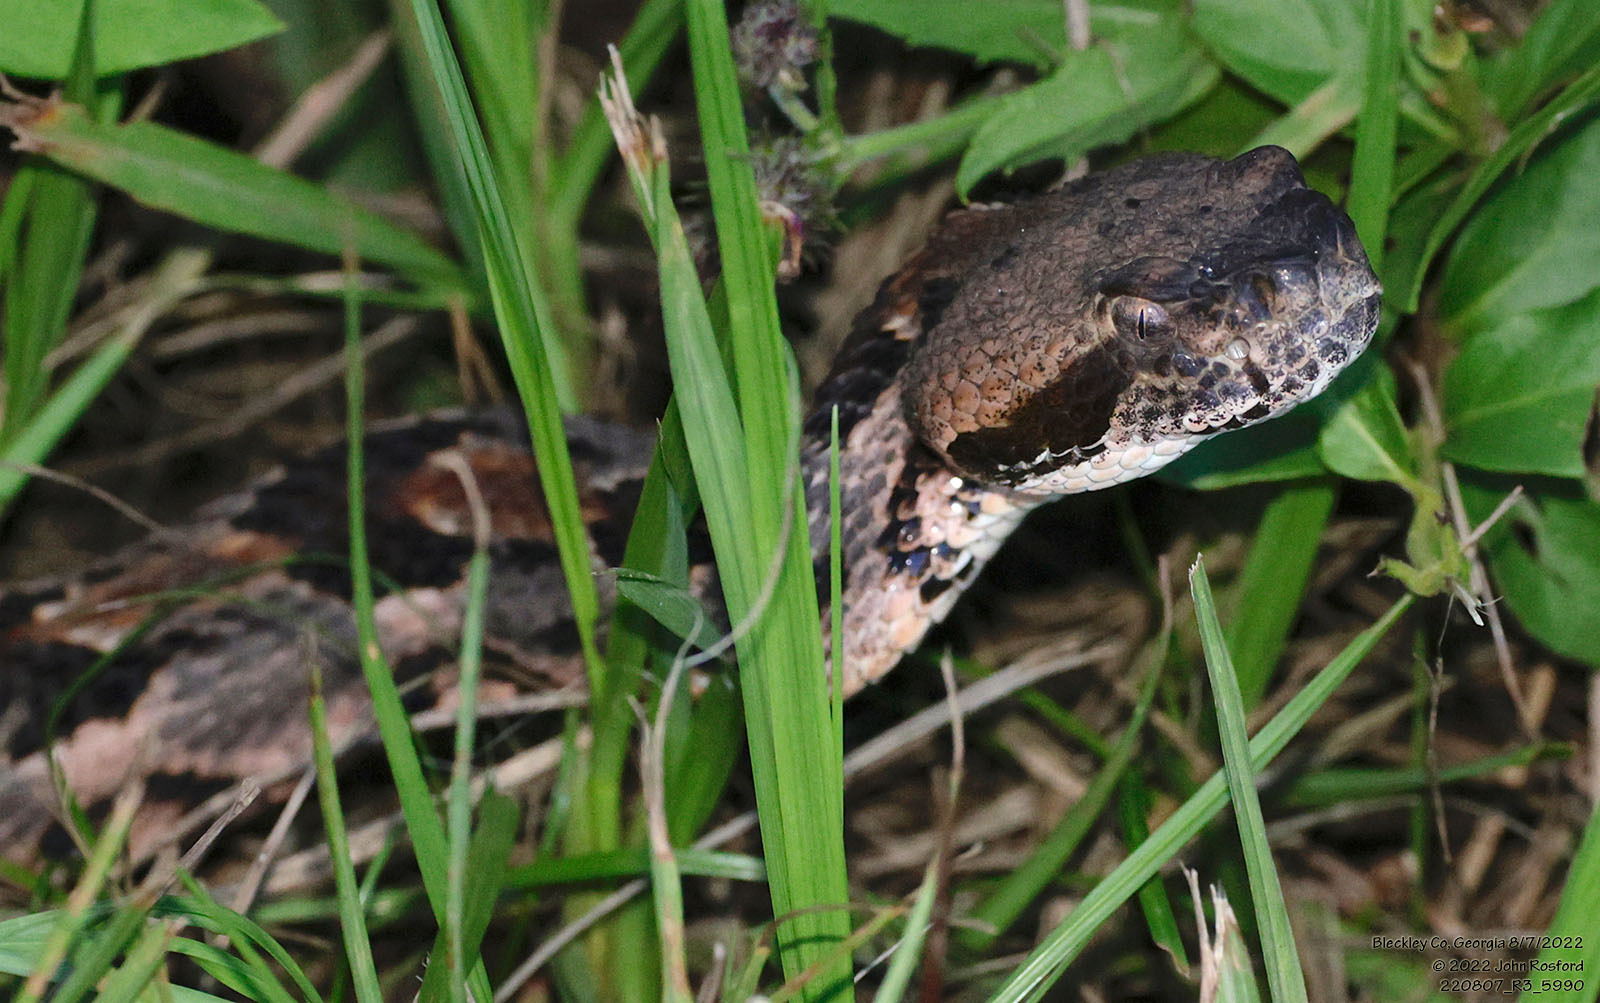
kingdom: Animalia
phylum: Chordata
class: Squamata
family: Viperidae
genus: Crotalus
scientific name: Crotalus horridus
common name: Timber rattlesnake
